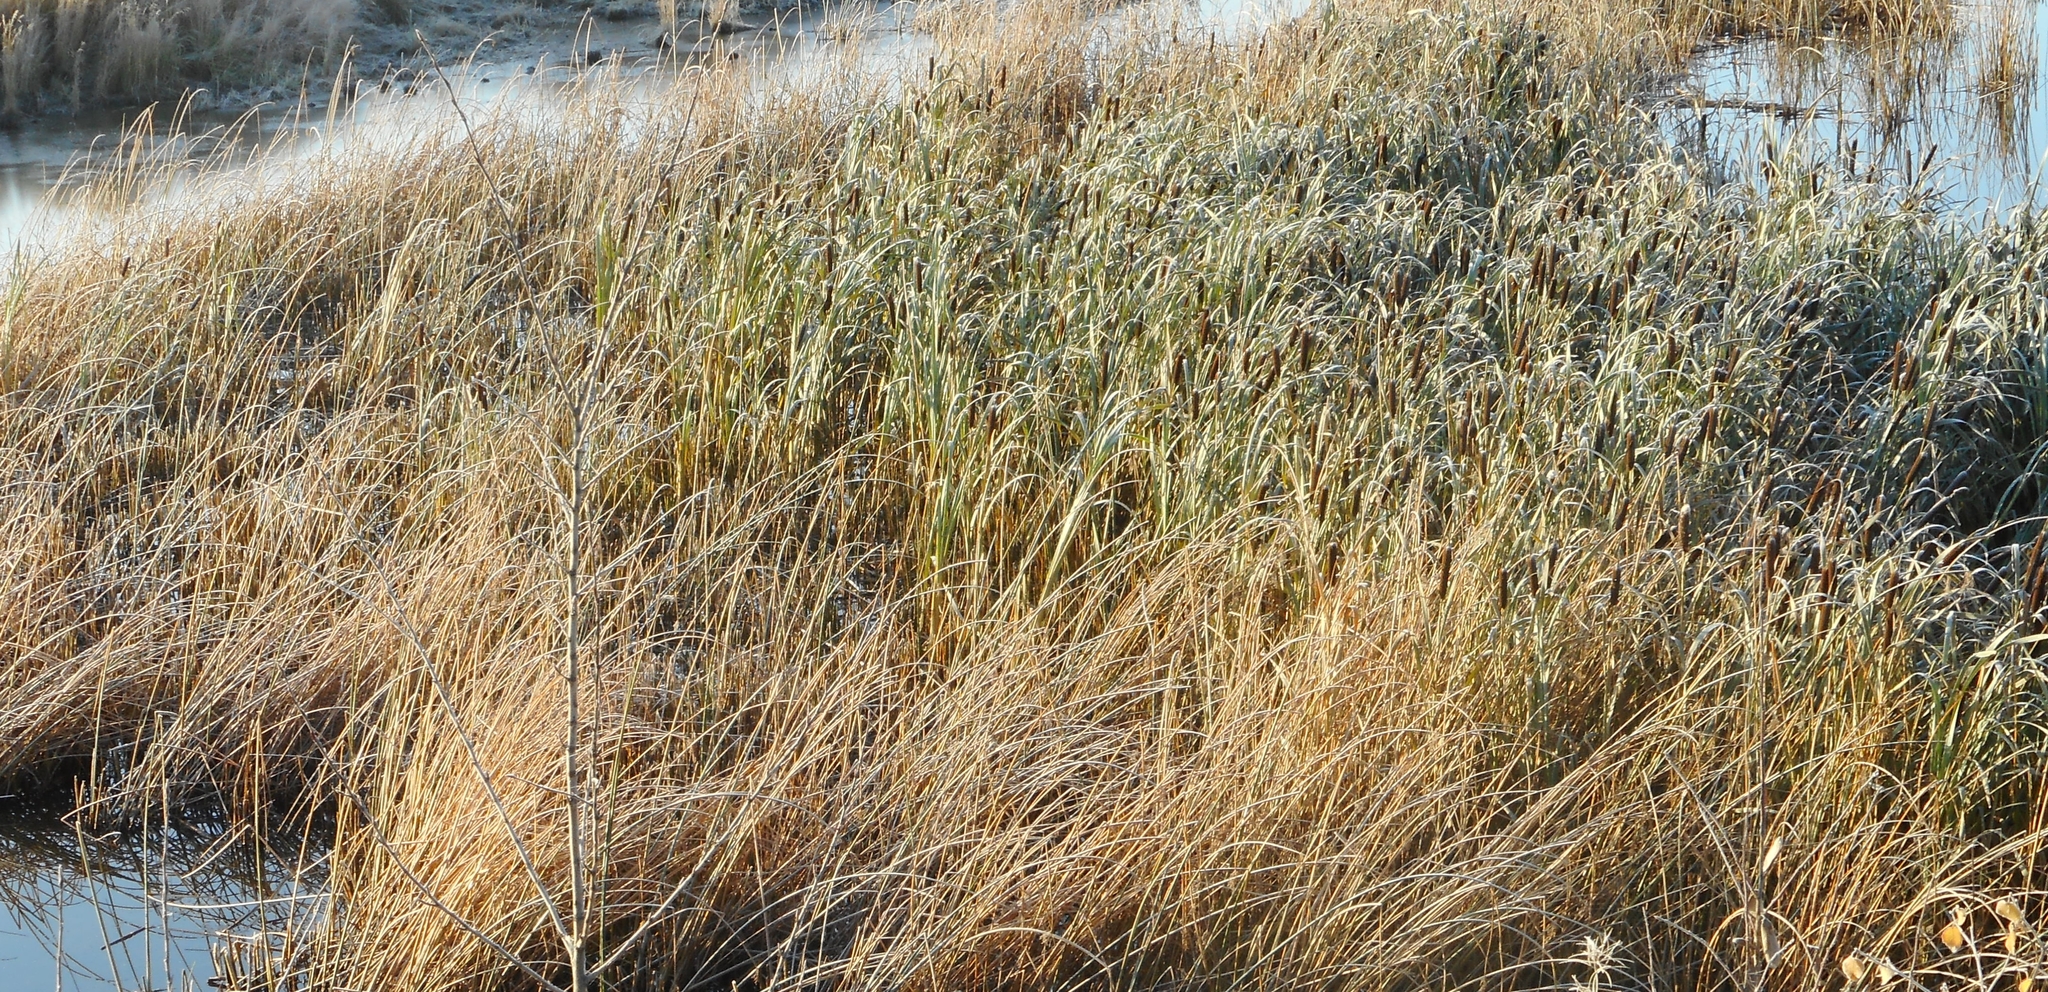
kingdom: Plantae
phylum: Tracheophyta
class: Liliopsida
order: Poales
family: Typhaceae
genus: Typha
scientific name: Typha latifolia
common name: Broadleaf cattail
